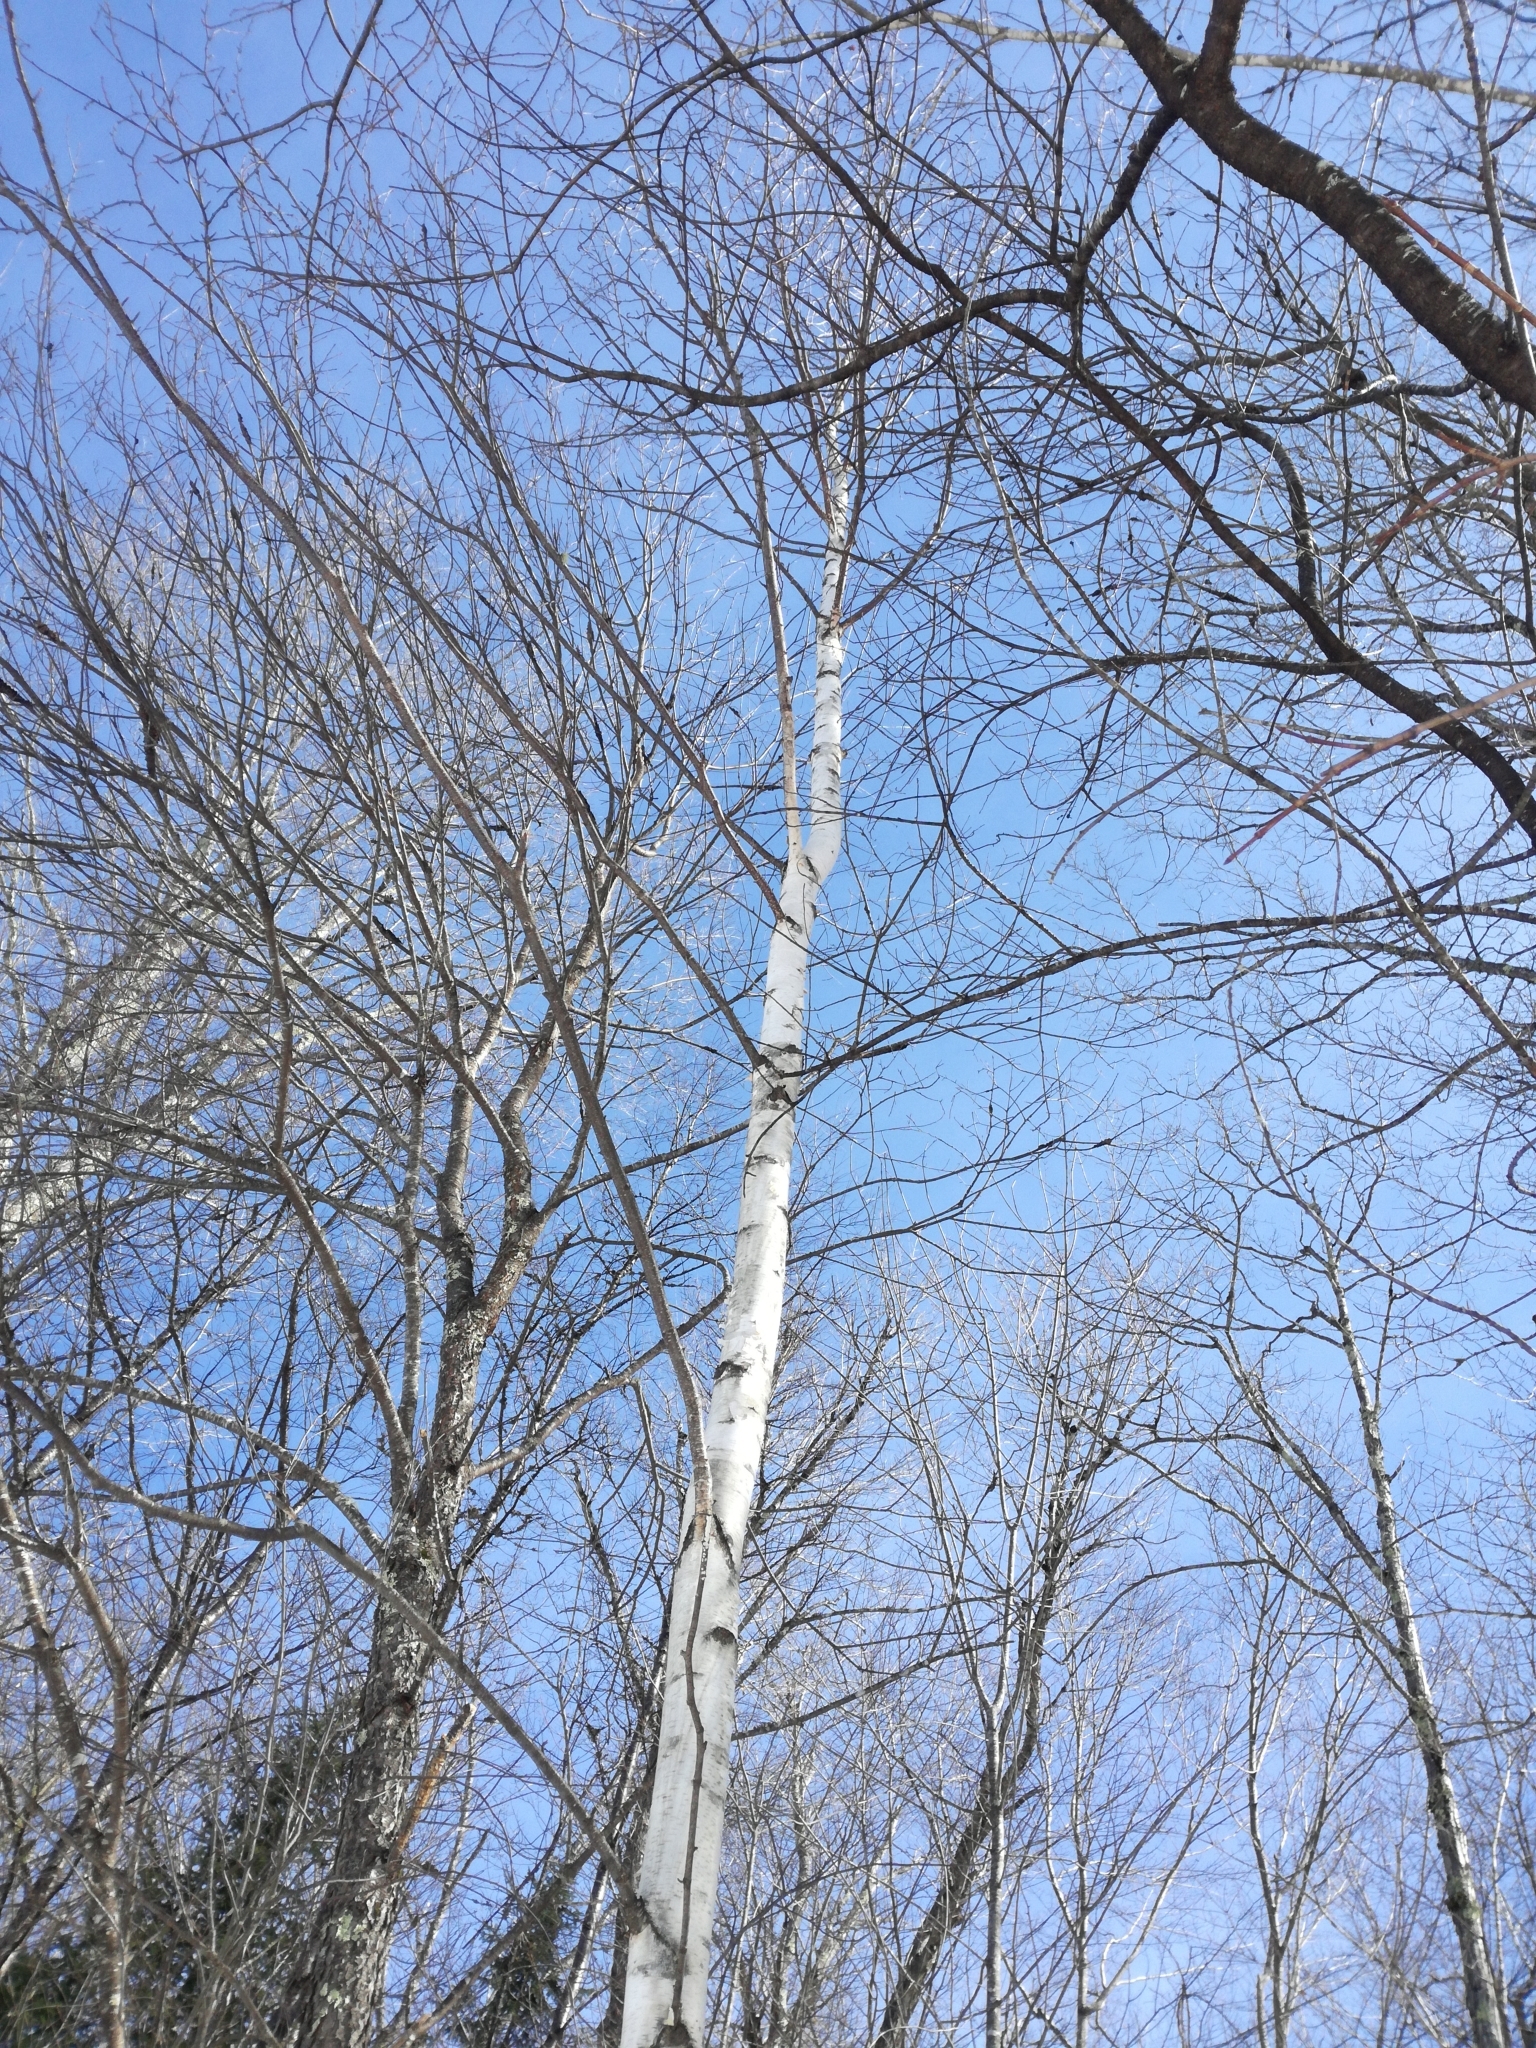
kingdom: Plantae
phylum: Tracheophyta
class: Magnoliopsida
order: Fagales
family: Betulaceae
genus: Betula
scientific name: Betula papyrifera
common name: Paper birch
